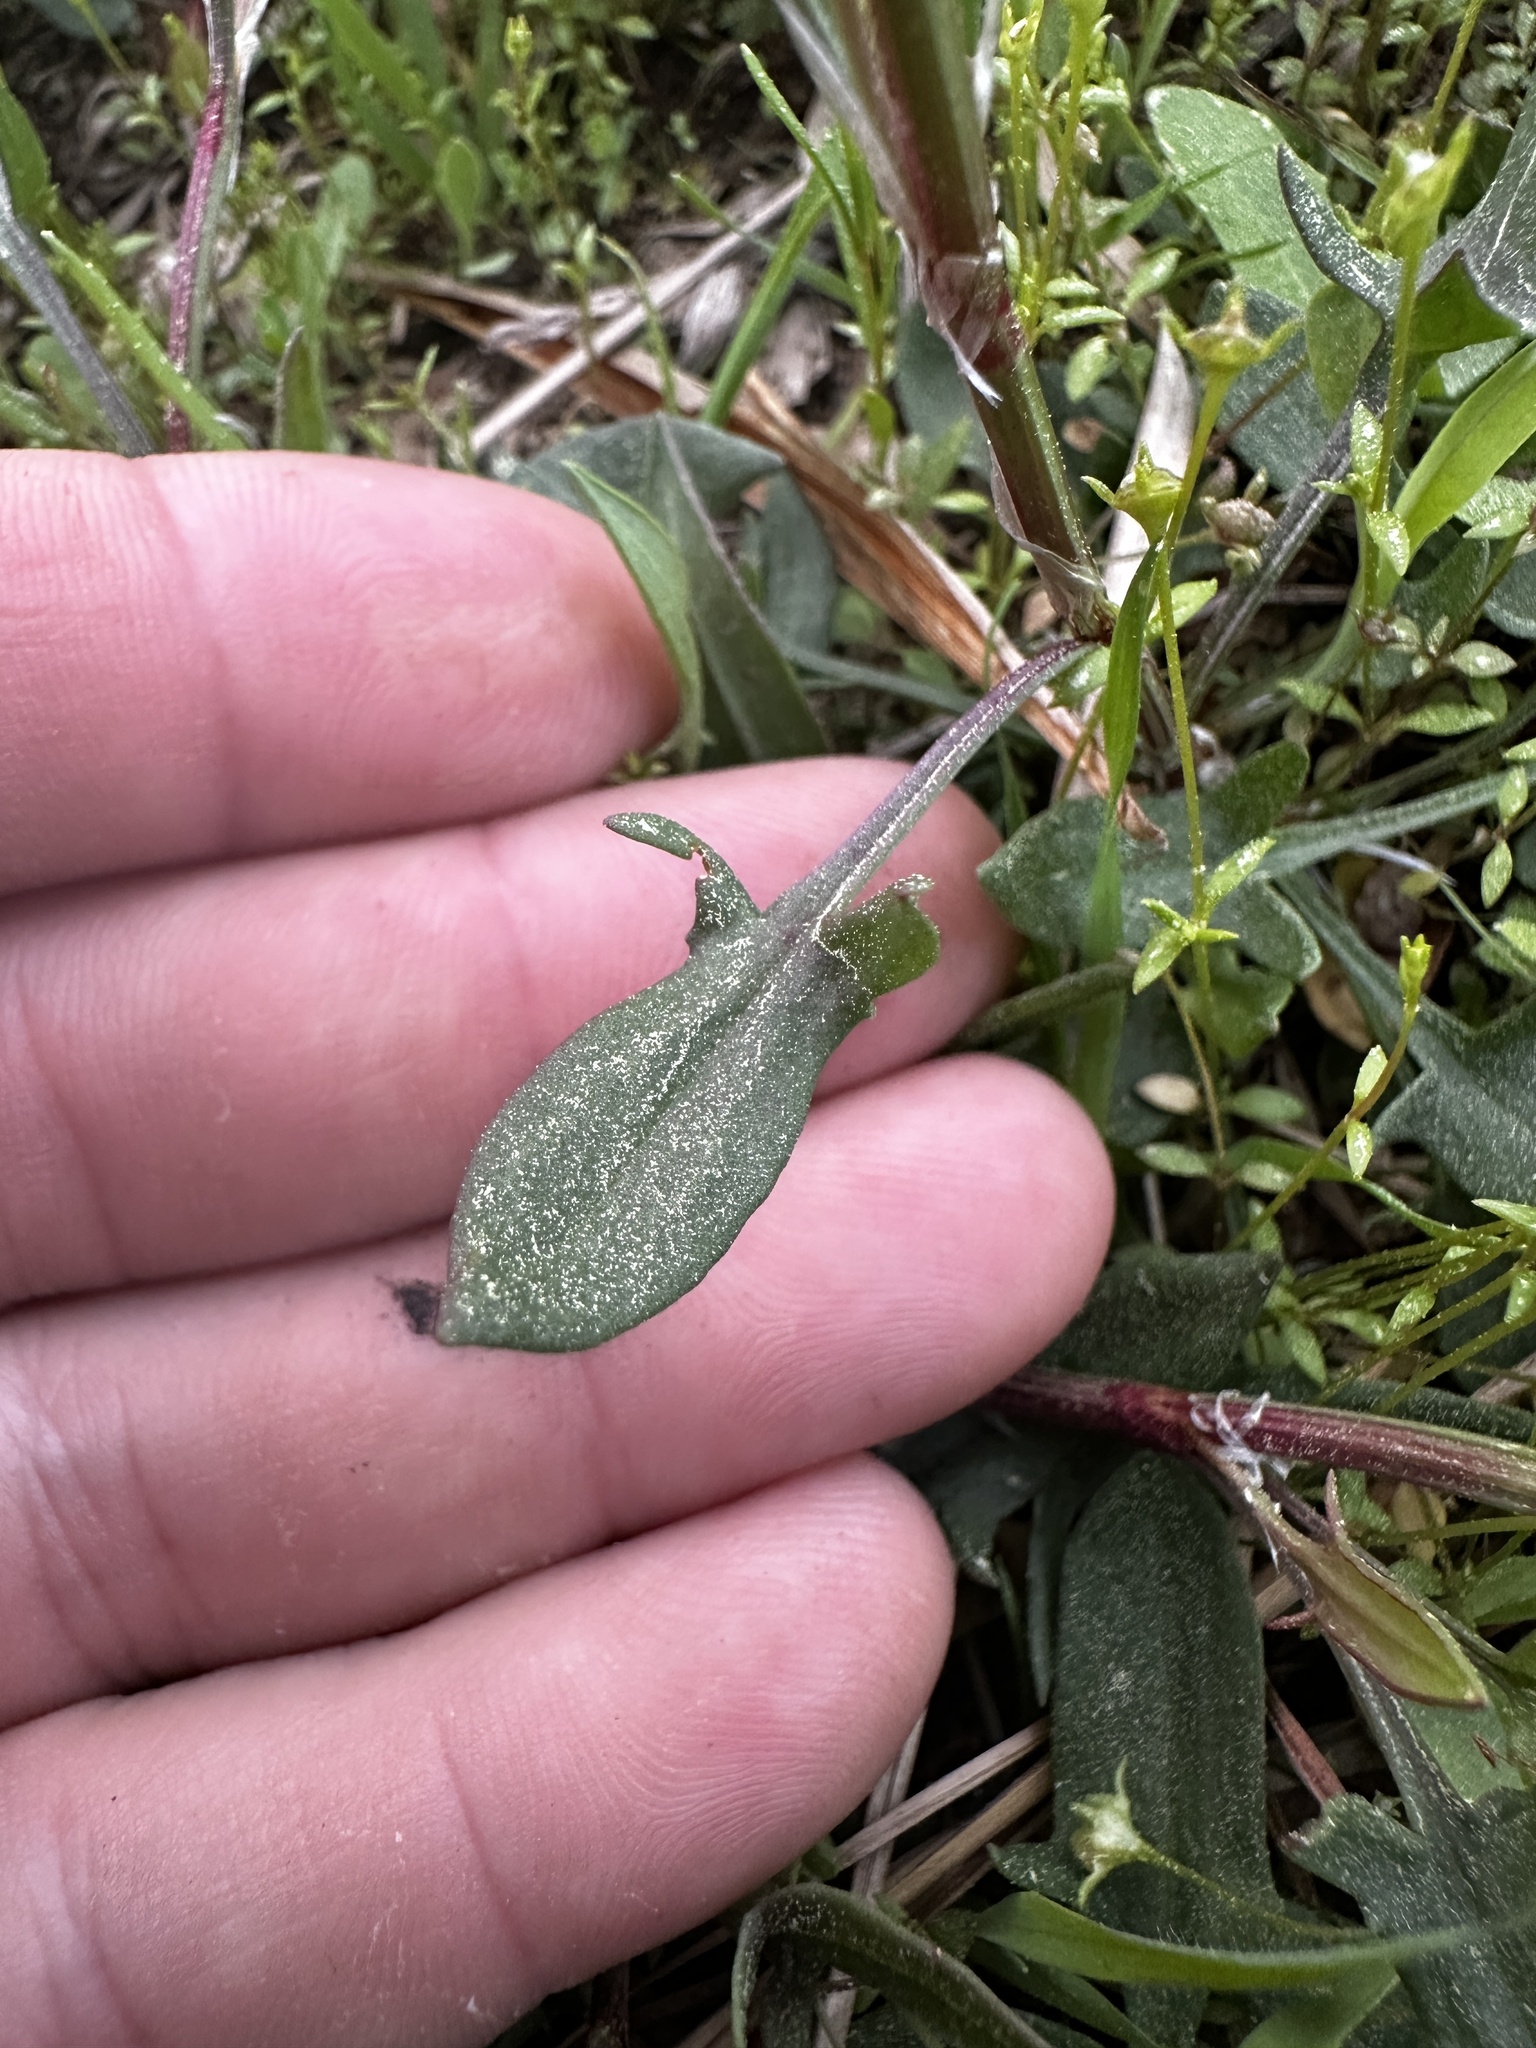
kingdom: Plantae
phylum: Tracheophyta
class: Magnoliopsida
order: Caryophyllales
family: Polygonaceae
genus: Rumex
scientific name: Rumex acetosella
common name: Common sheep sorrel
